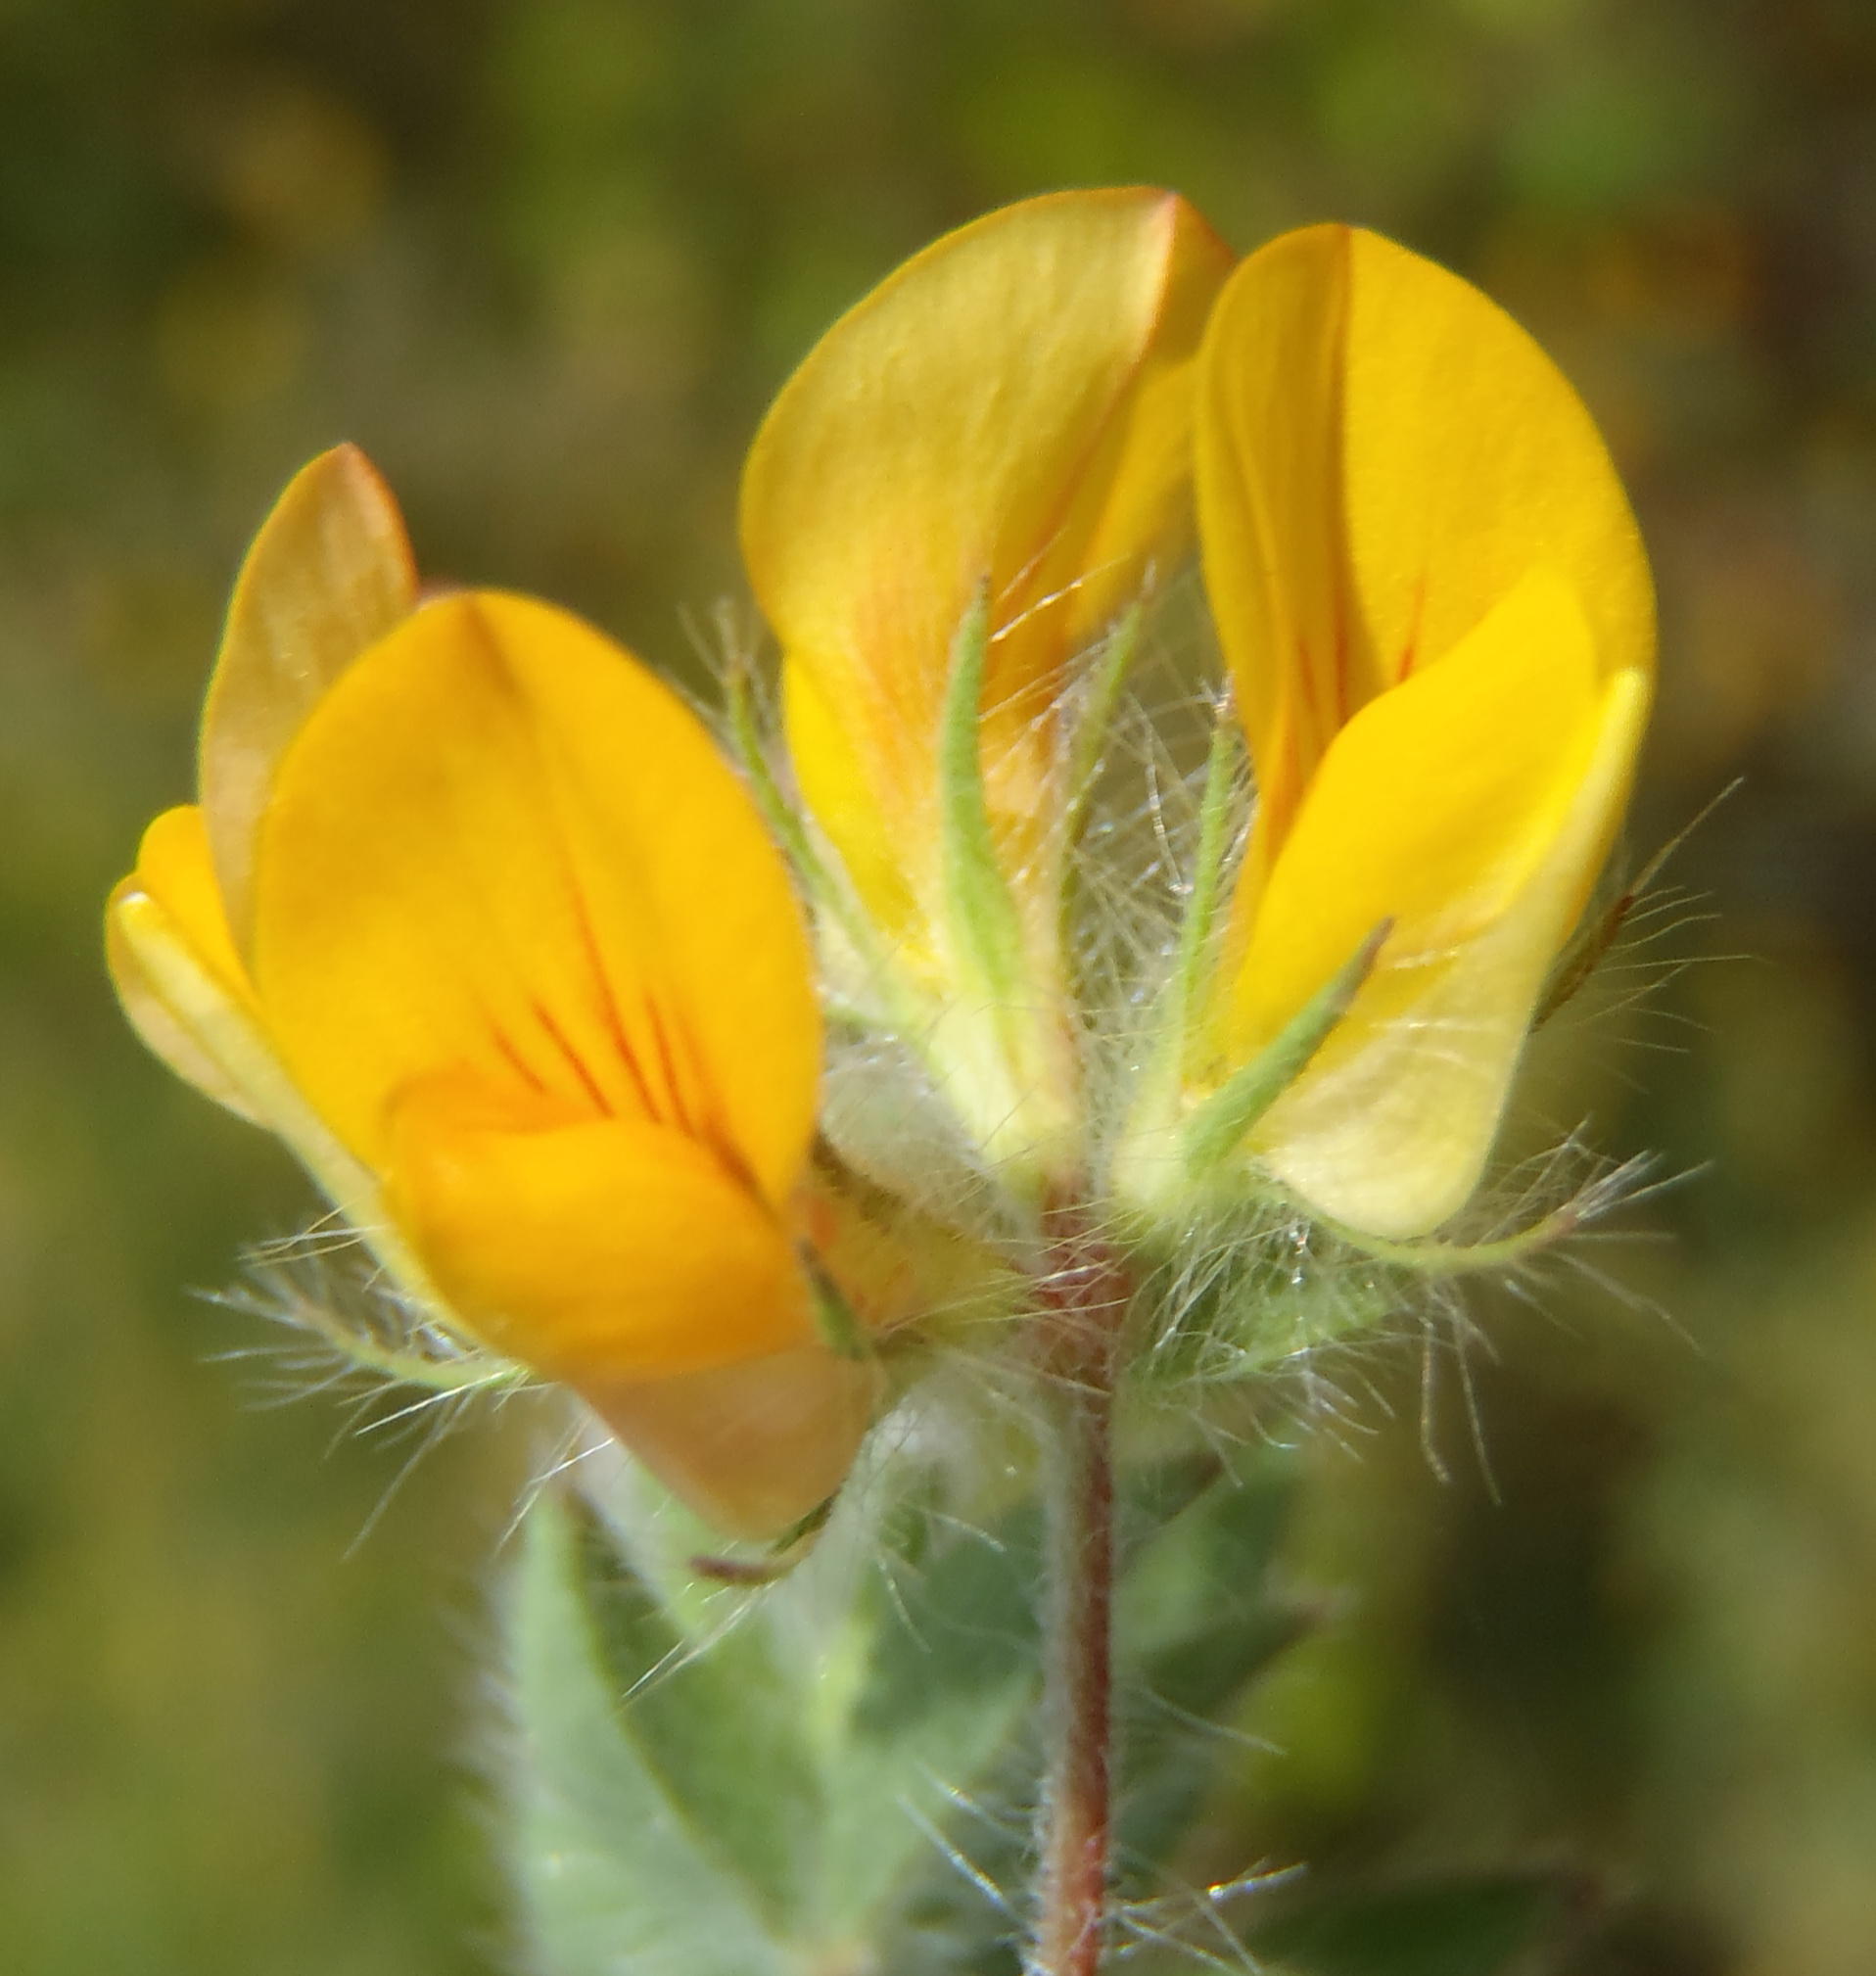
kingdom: Plantae
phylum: Tracheophyta
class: Magnoliopsida
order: Fabales
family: Fabaceae
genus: Lotus
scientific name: Lotus subbiflorus
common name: Hairy bird's-foot trefoil
